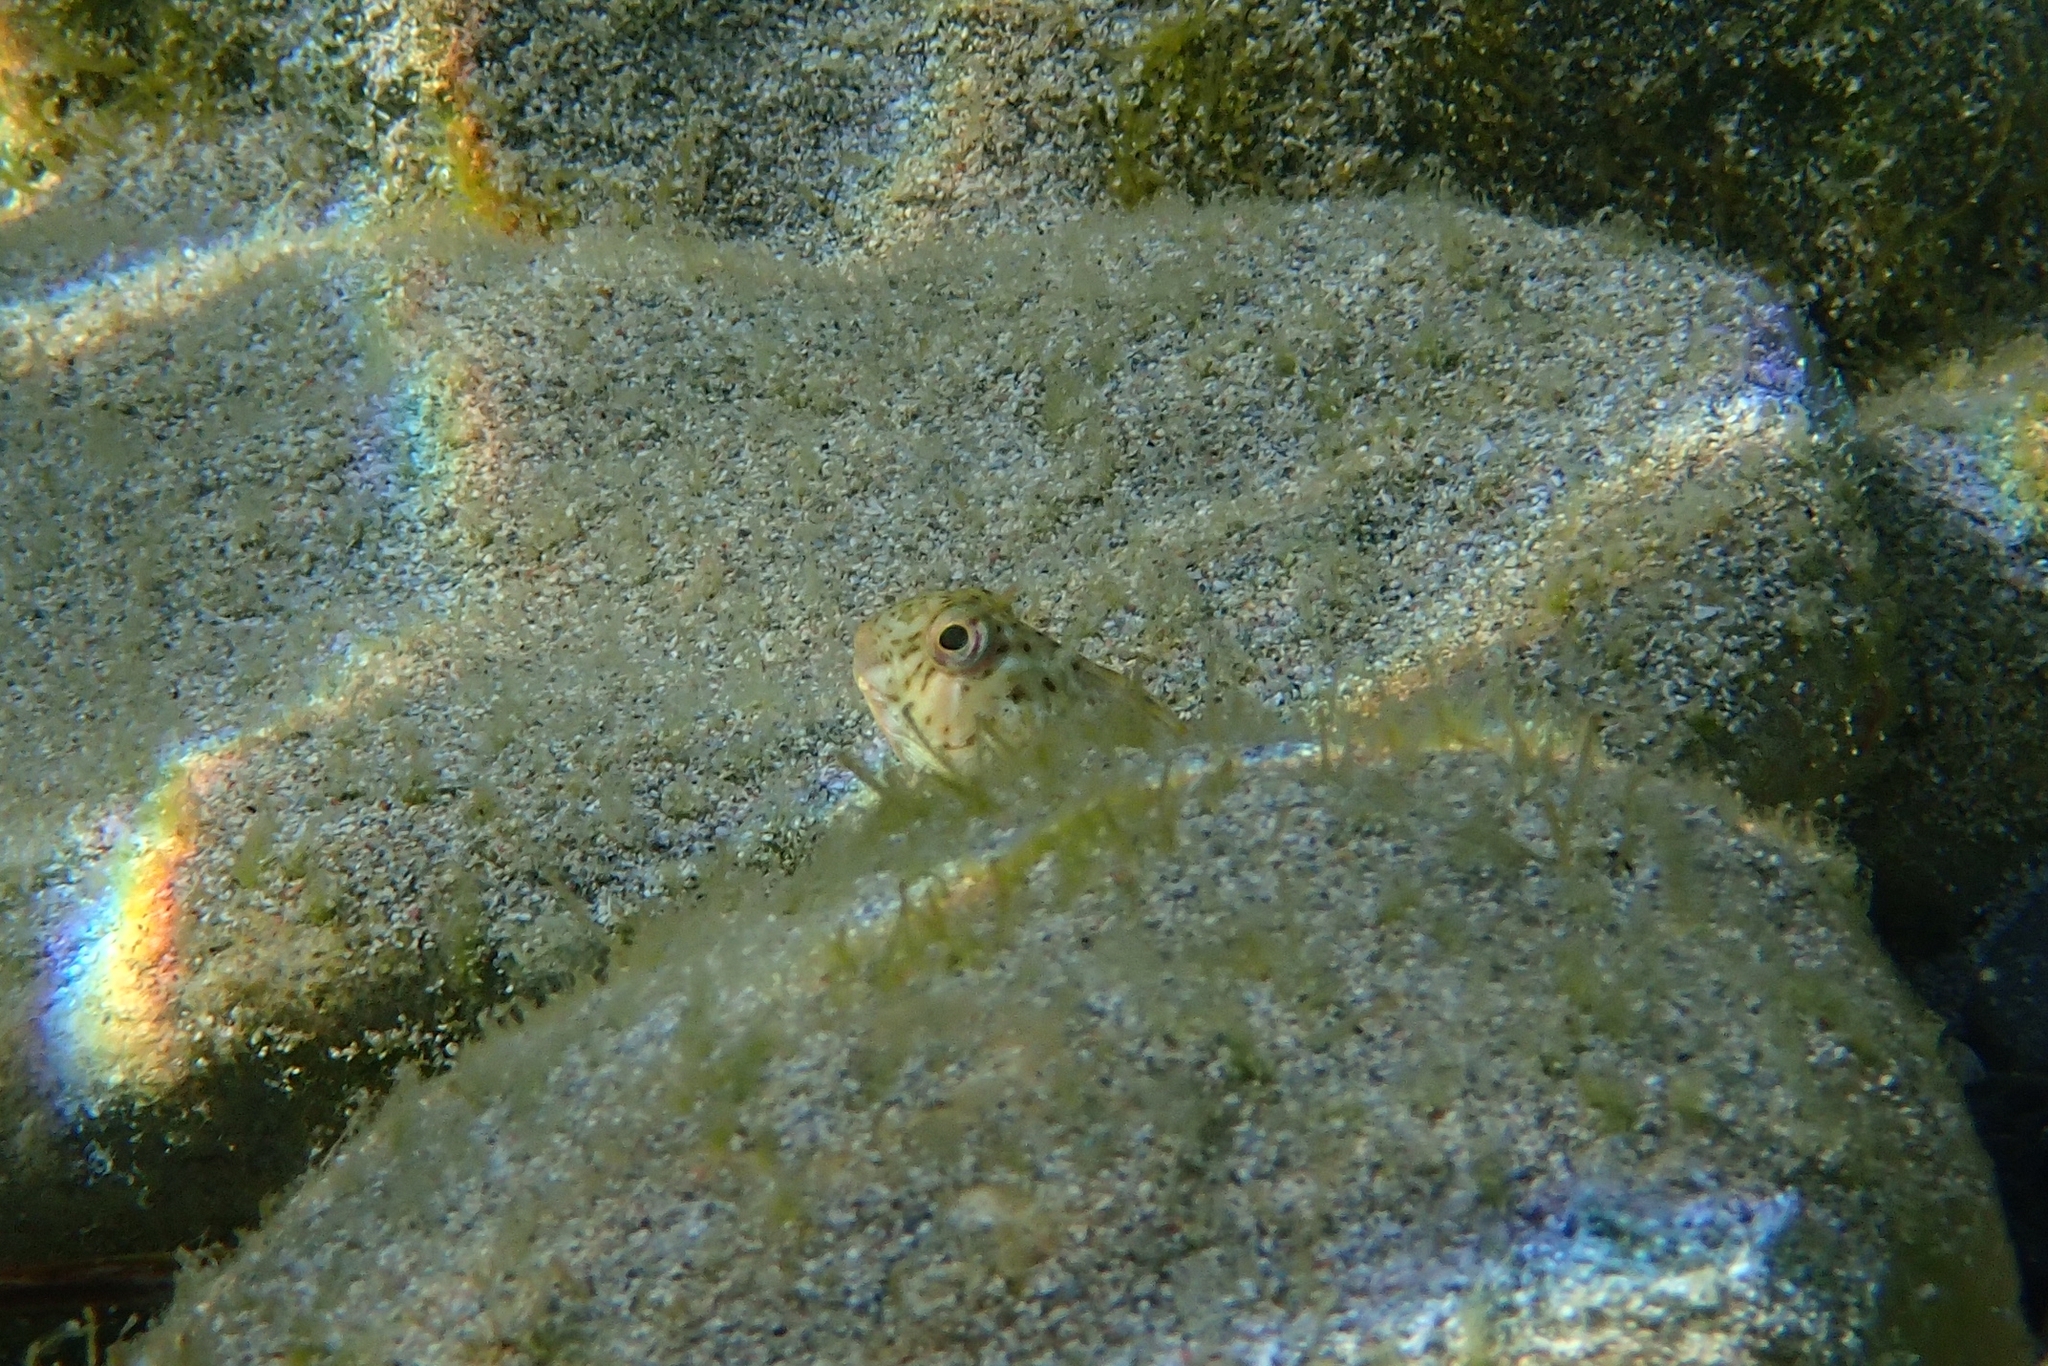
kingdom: Animalia
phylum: Chordata
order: Perciformes
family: Blenniidae
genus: Parablennius
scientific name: Parablennius sanguinolentus
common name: Black sea blenny
